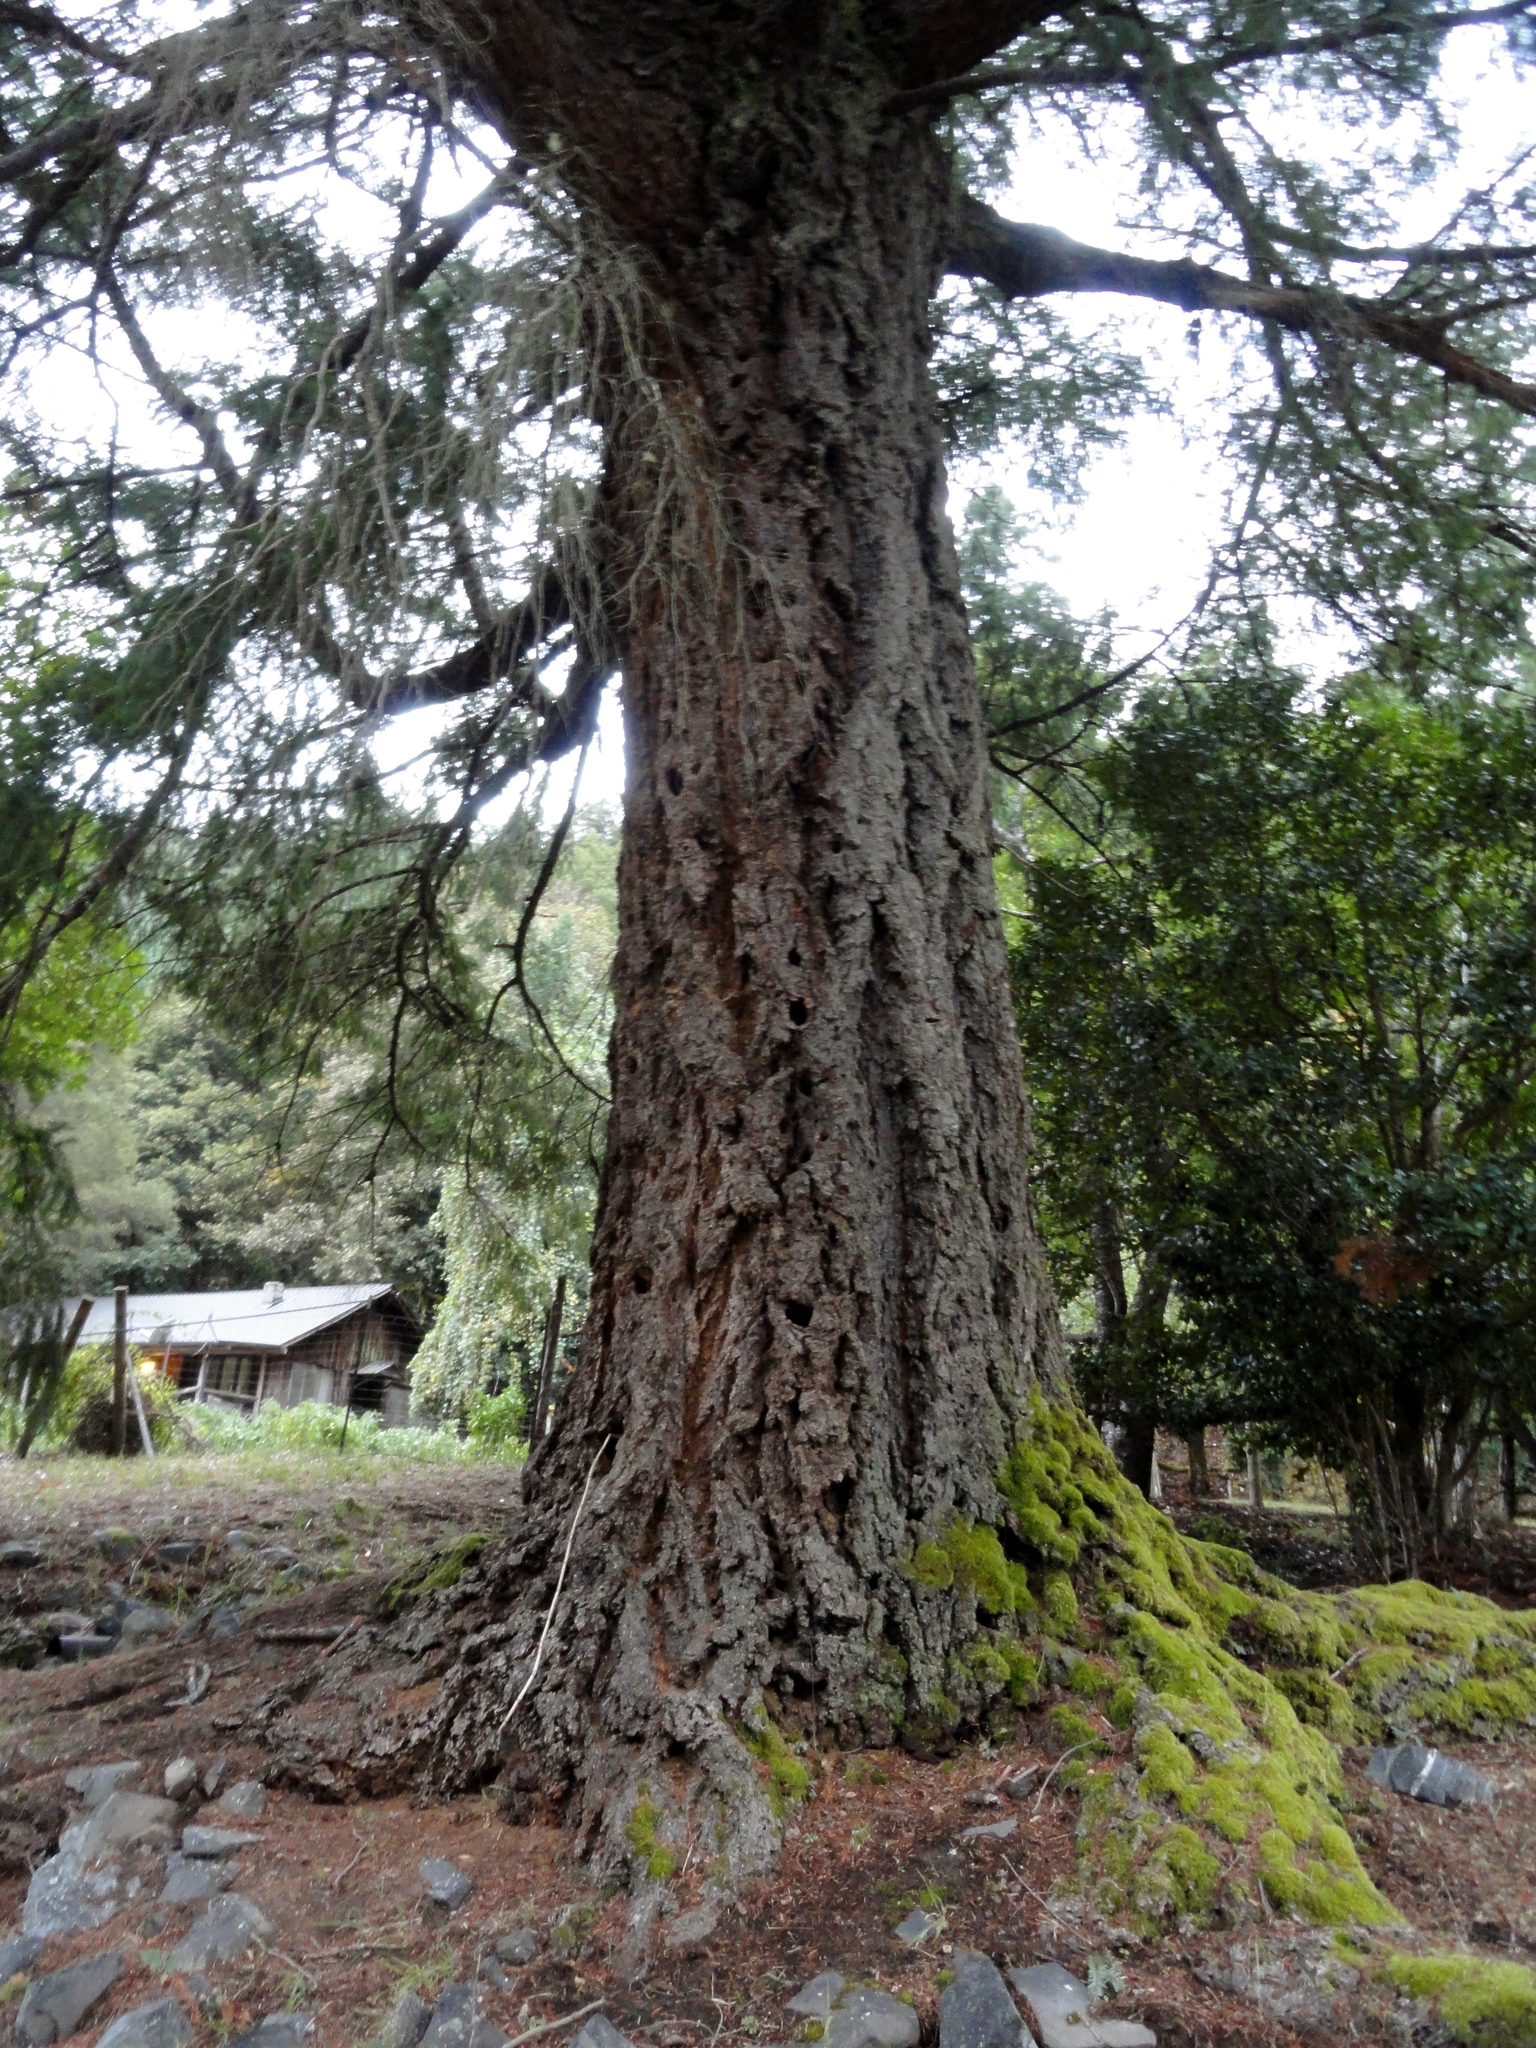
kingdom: Plantae
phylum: Tracheophyta
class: Pinopsida
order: Pinales
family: Pinaceae
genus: Pseudotsuga
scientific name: Pseudotsuga menziesii
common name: Douglas fir
